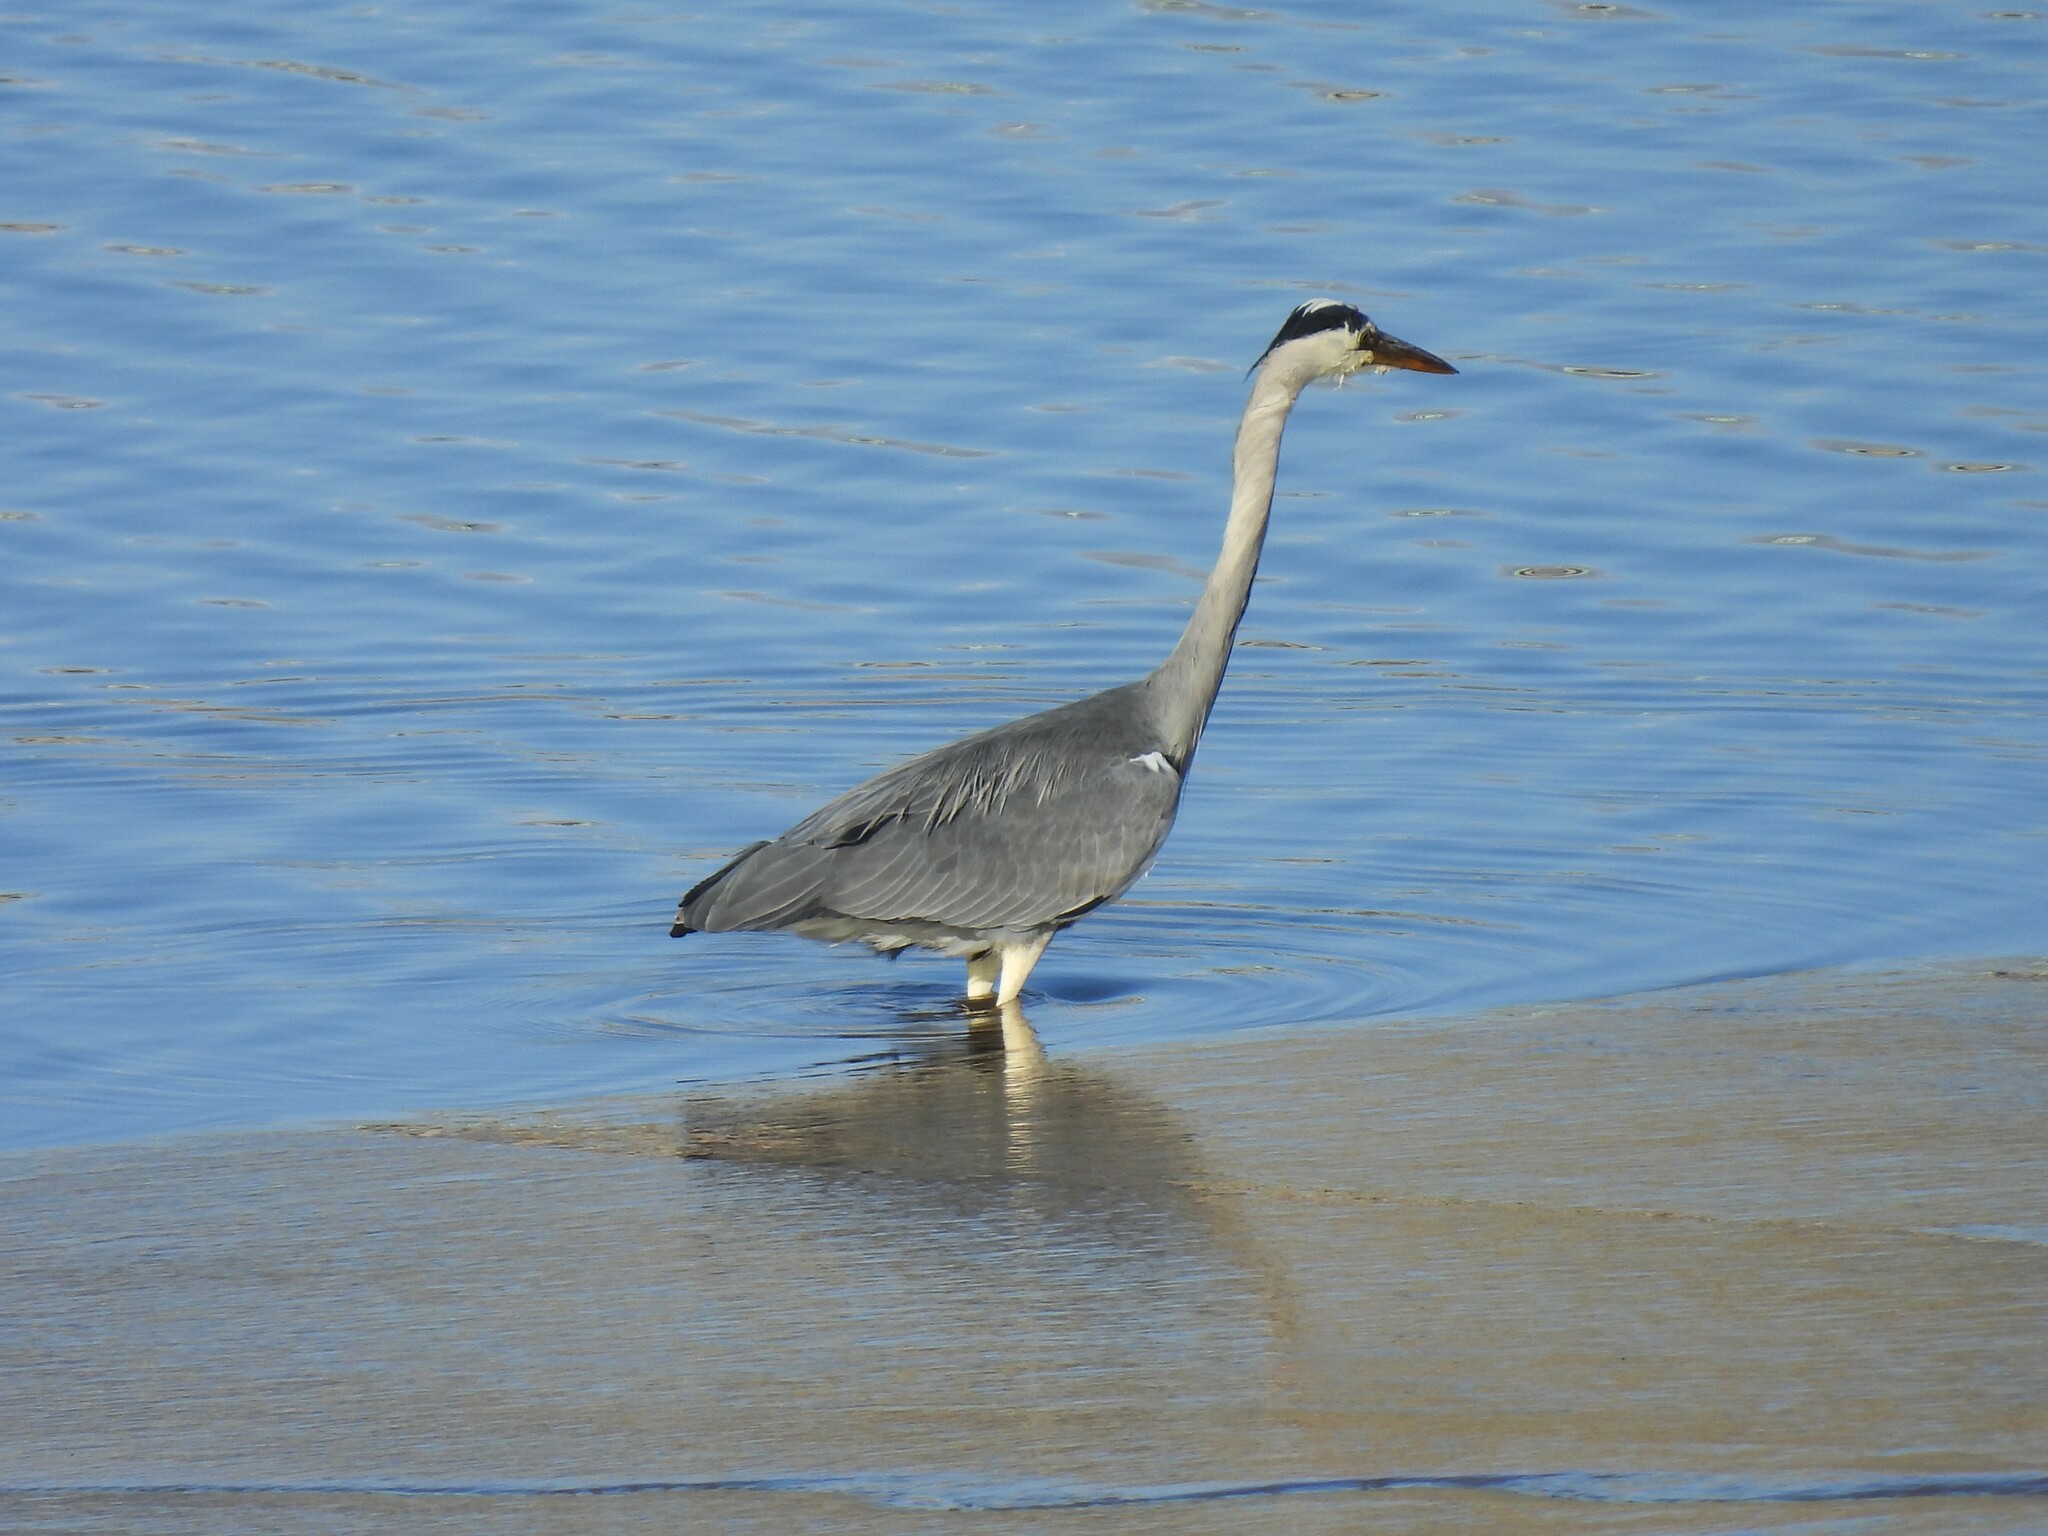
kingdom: Animalia
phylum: Chordata
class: Aves
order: Pelecaniformes
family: Ardeidae
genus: Ardea
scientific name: Ardea cinerea
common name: Grey heron
